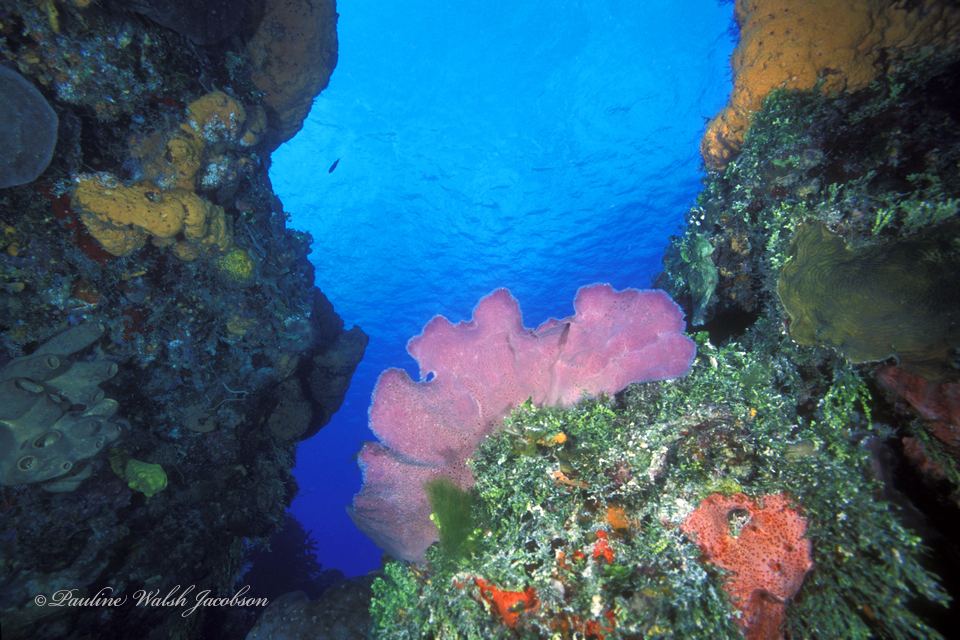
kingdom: Animalia
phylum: Porifera
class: Demospongiae
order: Haplosclerida
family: Niphatidae
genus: Niphates
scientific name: Niphates digitalis
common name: Pink vase sponge
